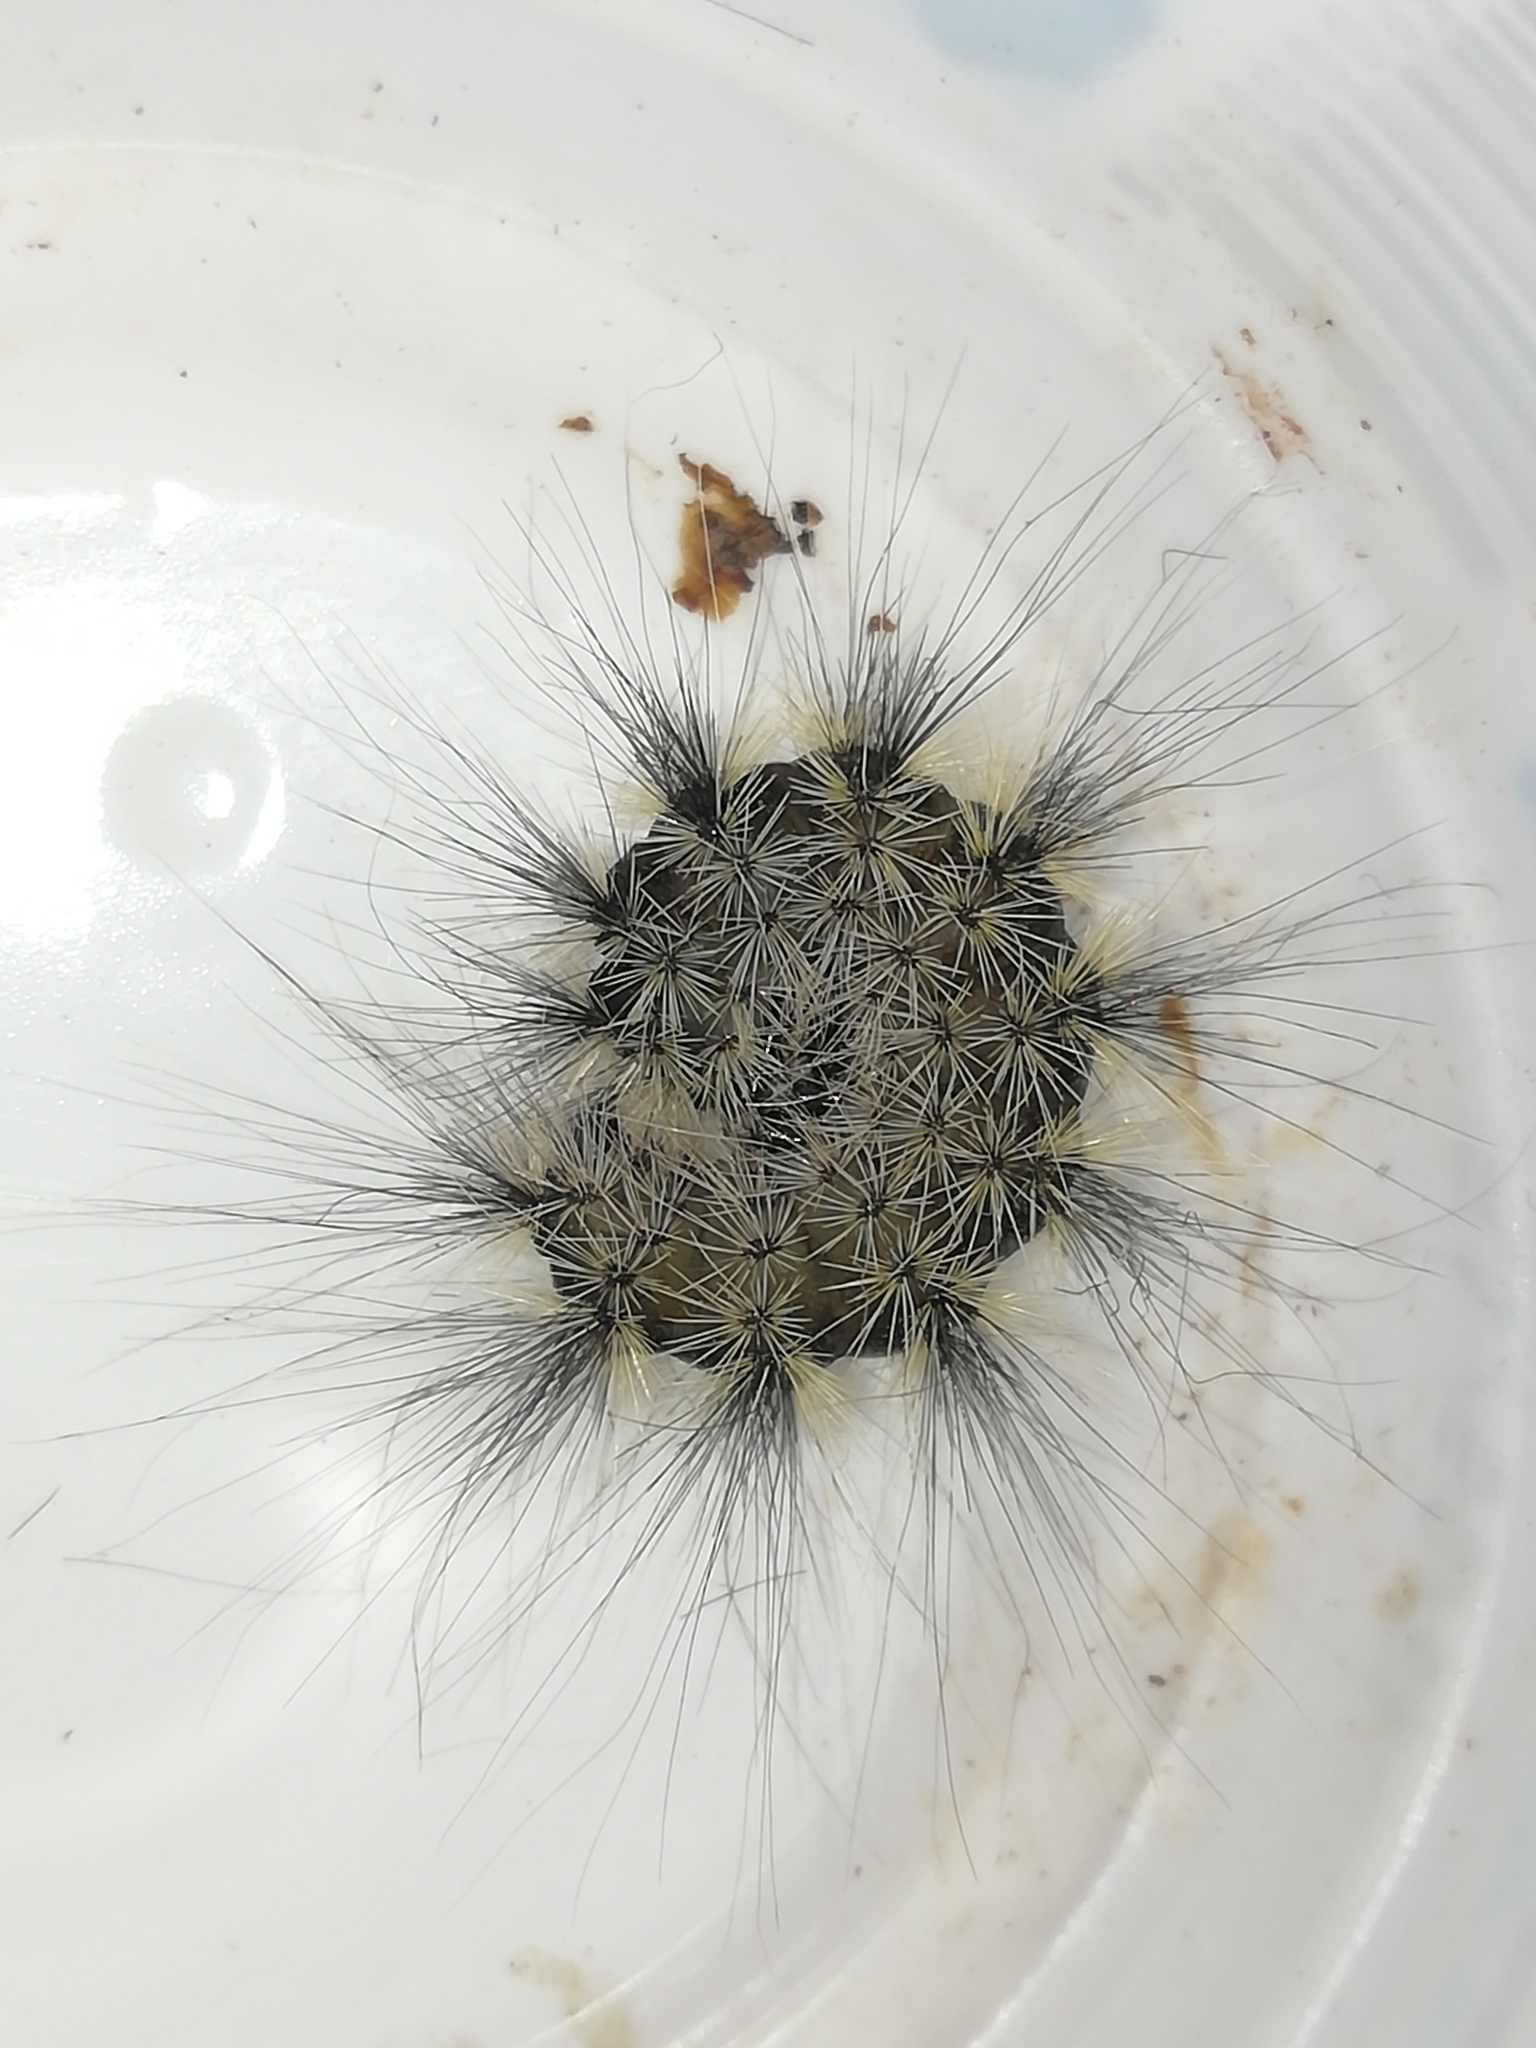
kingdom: Animalia
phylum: Arthropoda
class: Insecta
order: Lepidoptera
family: Erebidae
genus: Arctia
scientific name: Arctia flavia
